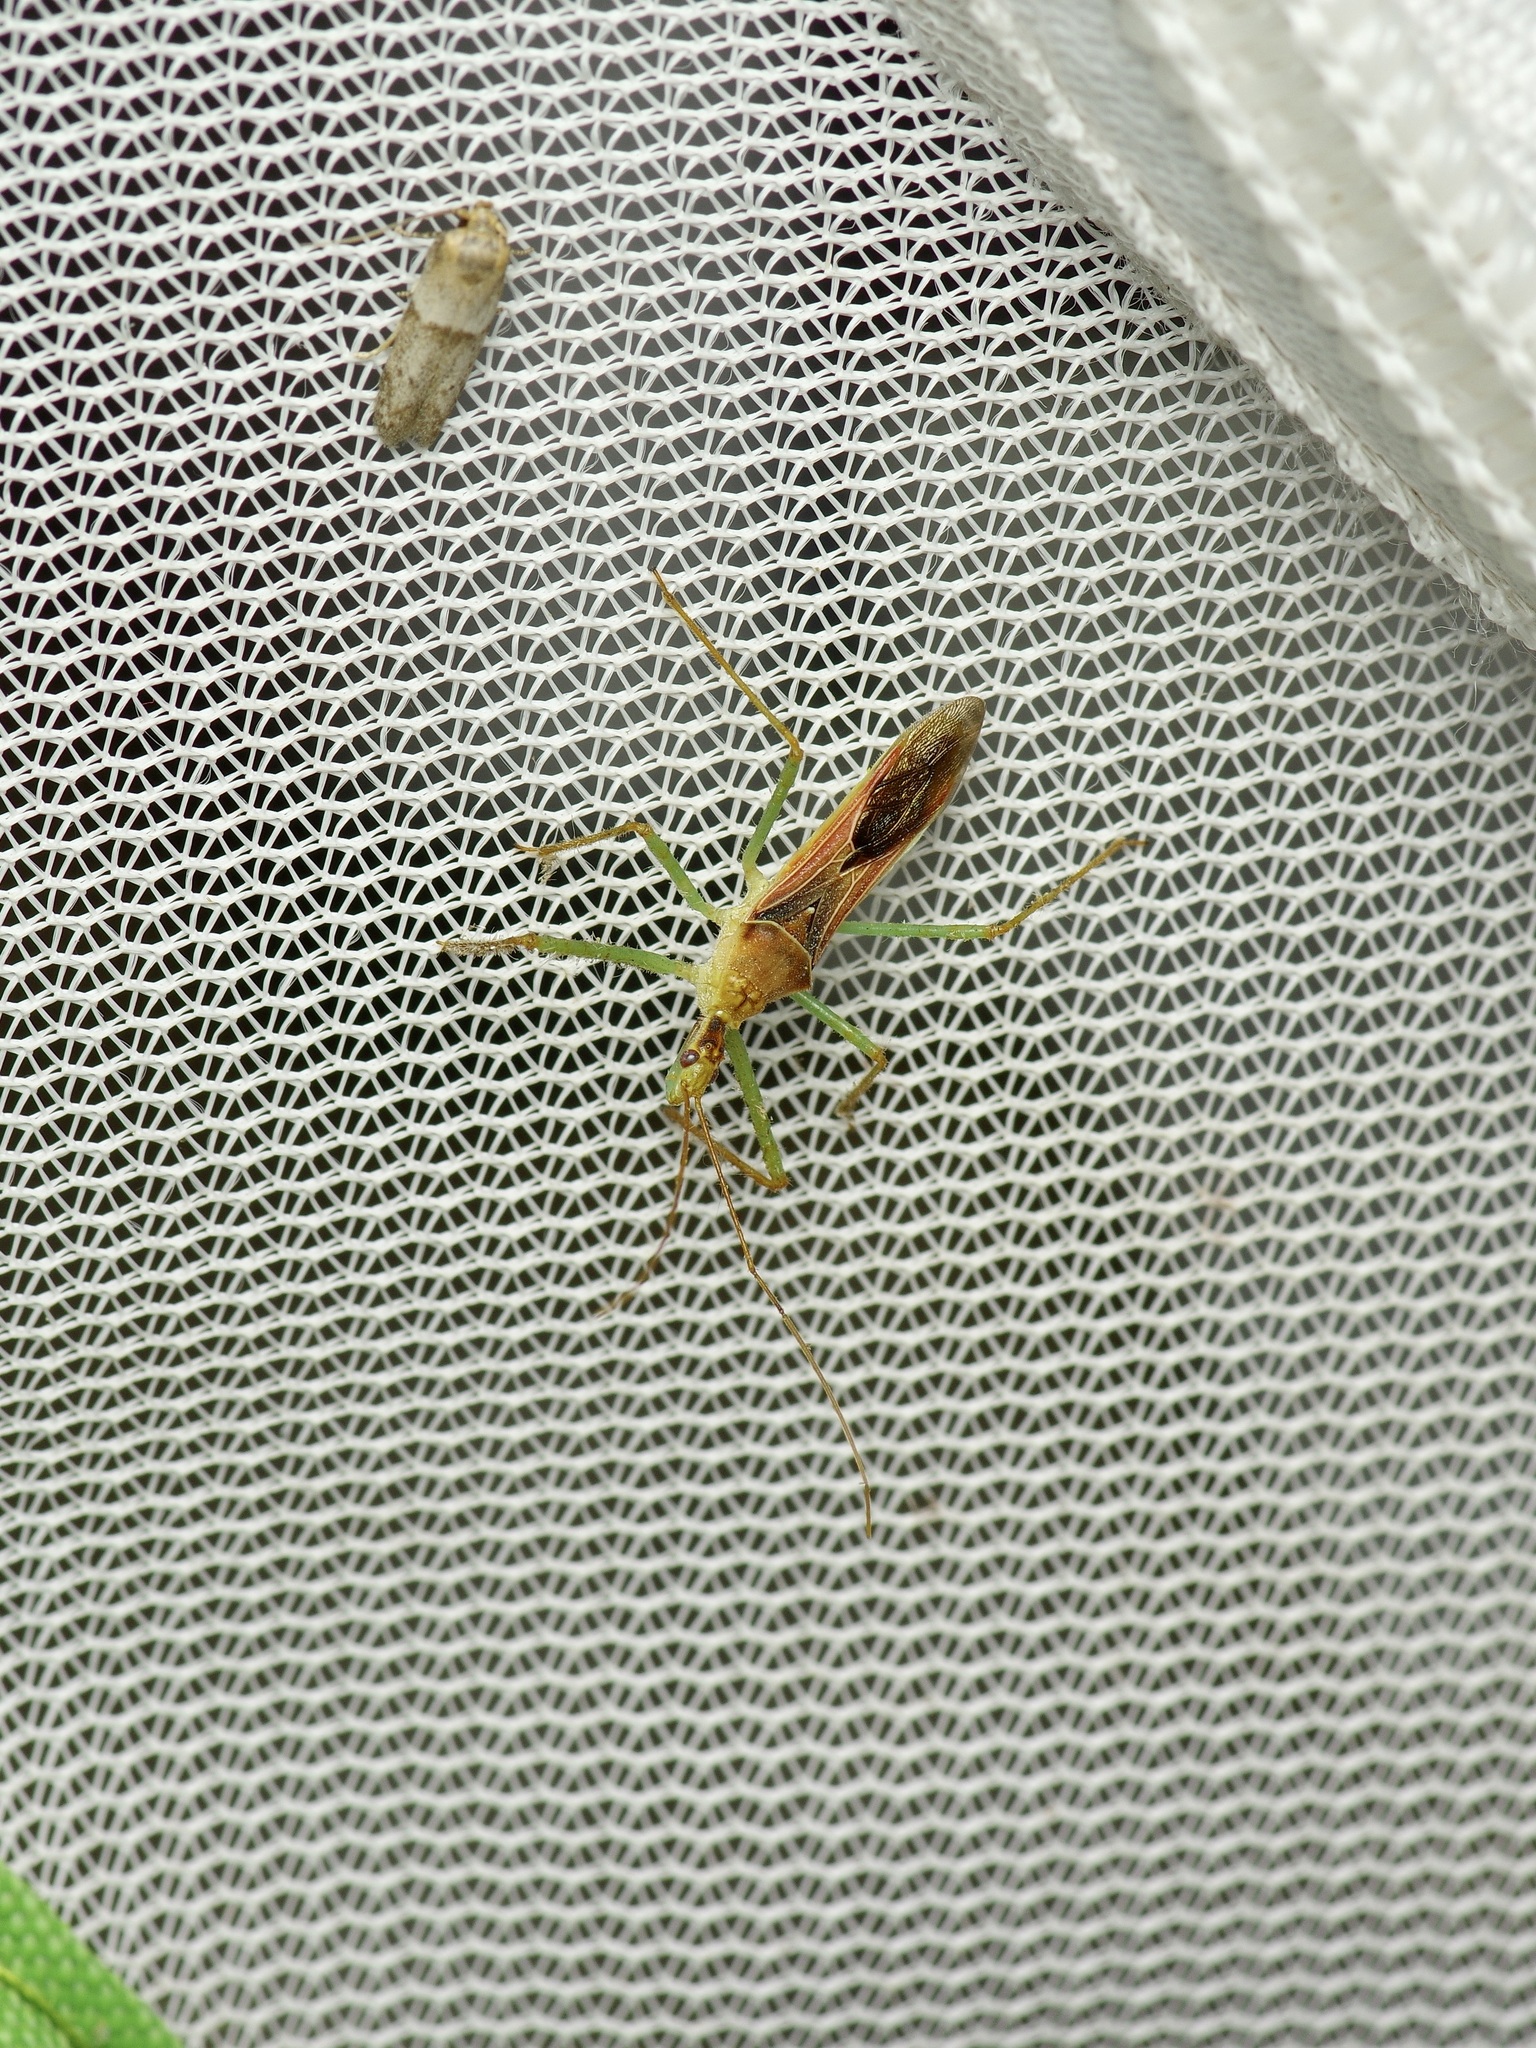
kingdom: Animalia
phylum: Arthropoda
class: Insecta
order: Hemiptera
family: Reduviidae
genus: Zelus
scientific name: Zelus renardii
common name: Assassin bug
